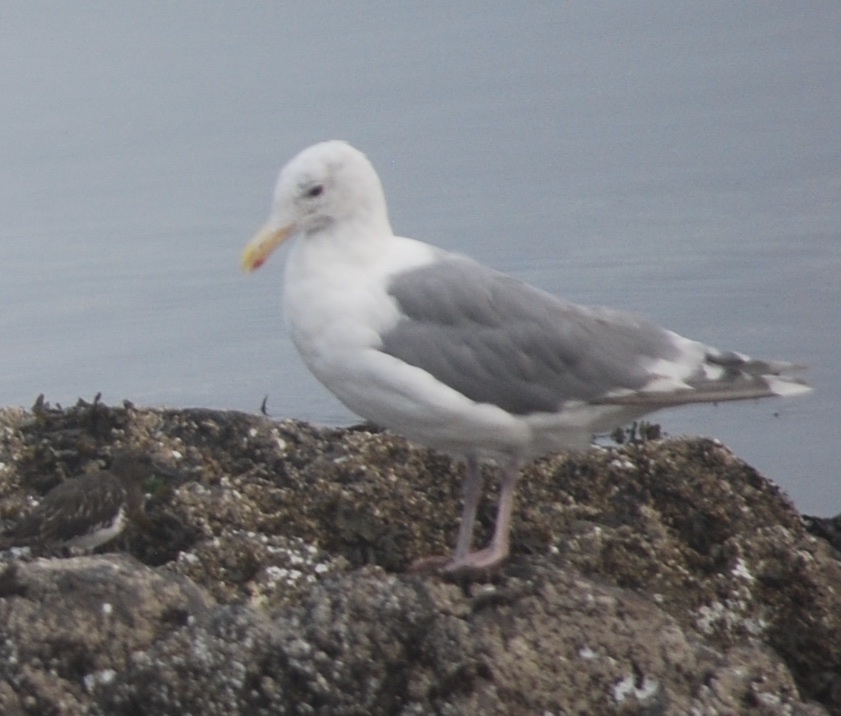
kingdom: Animalia
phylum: Chordata
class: Aves
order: Charadriiformes
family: Laridae
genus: Larus
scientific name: Larus
